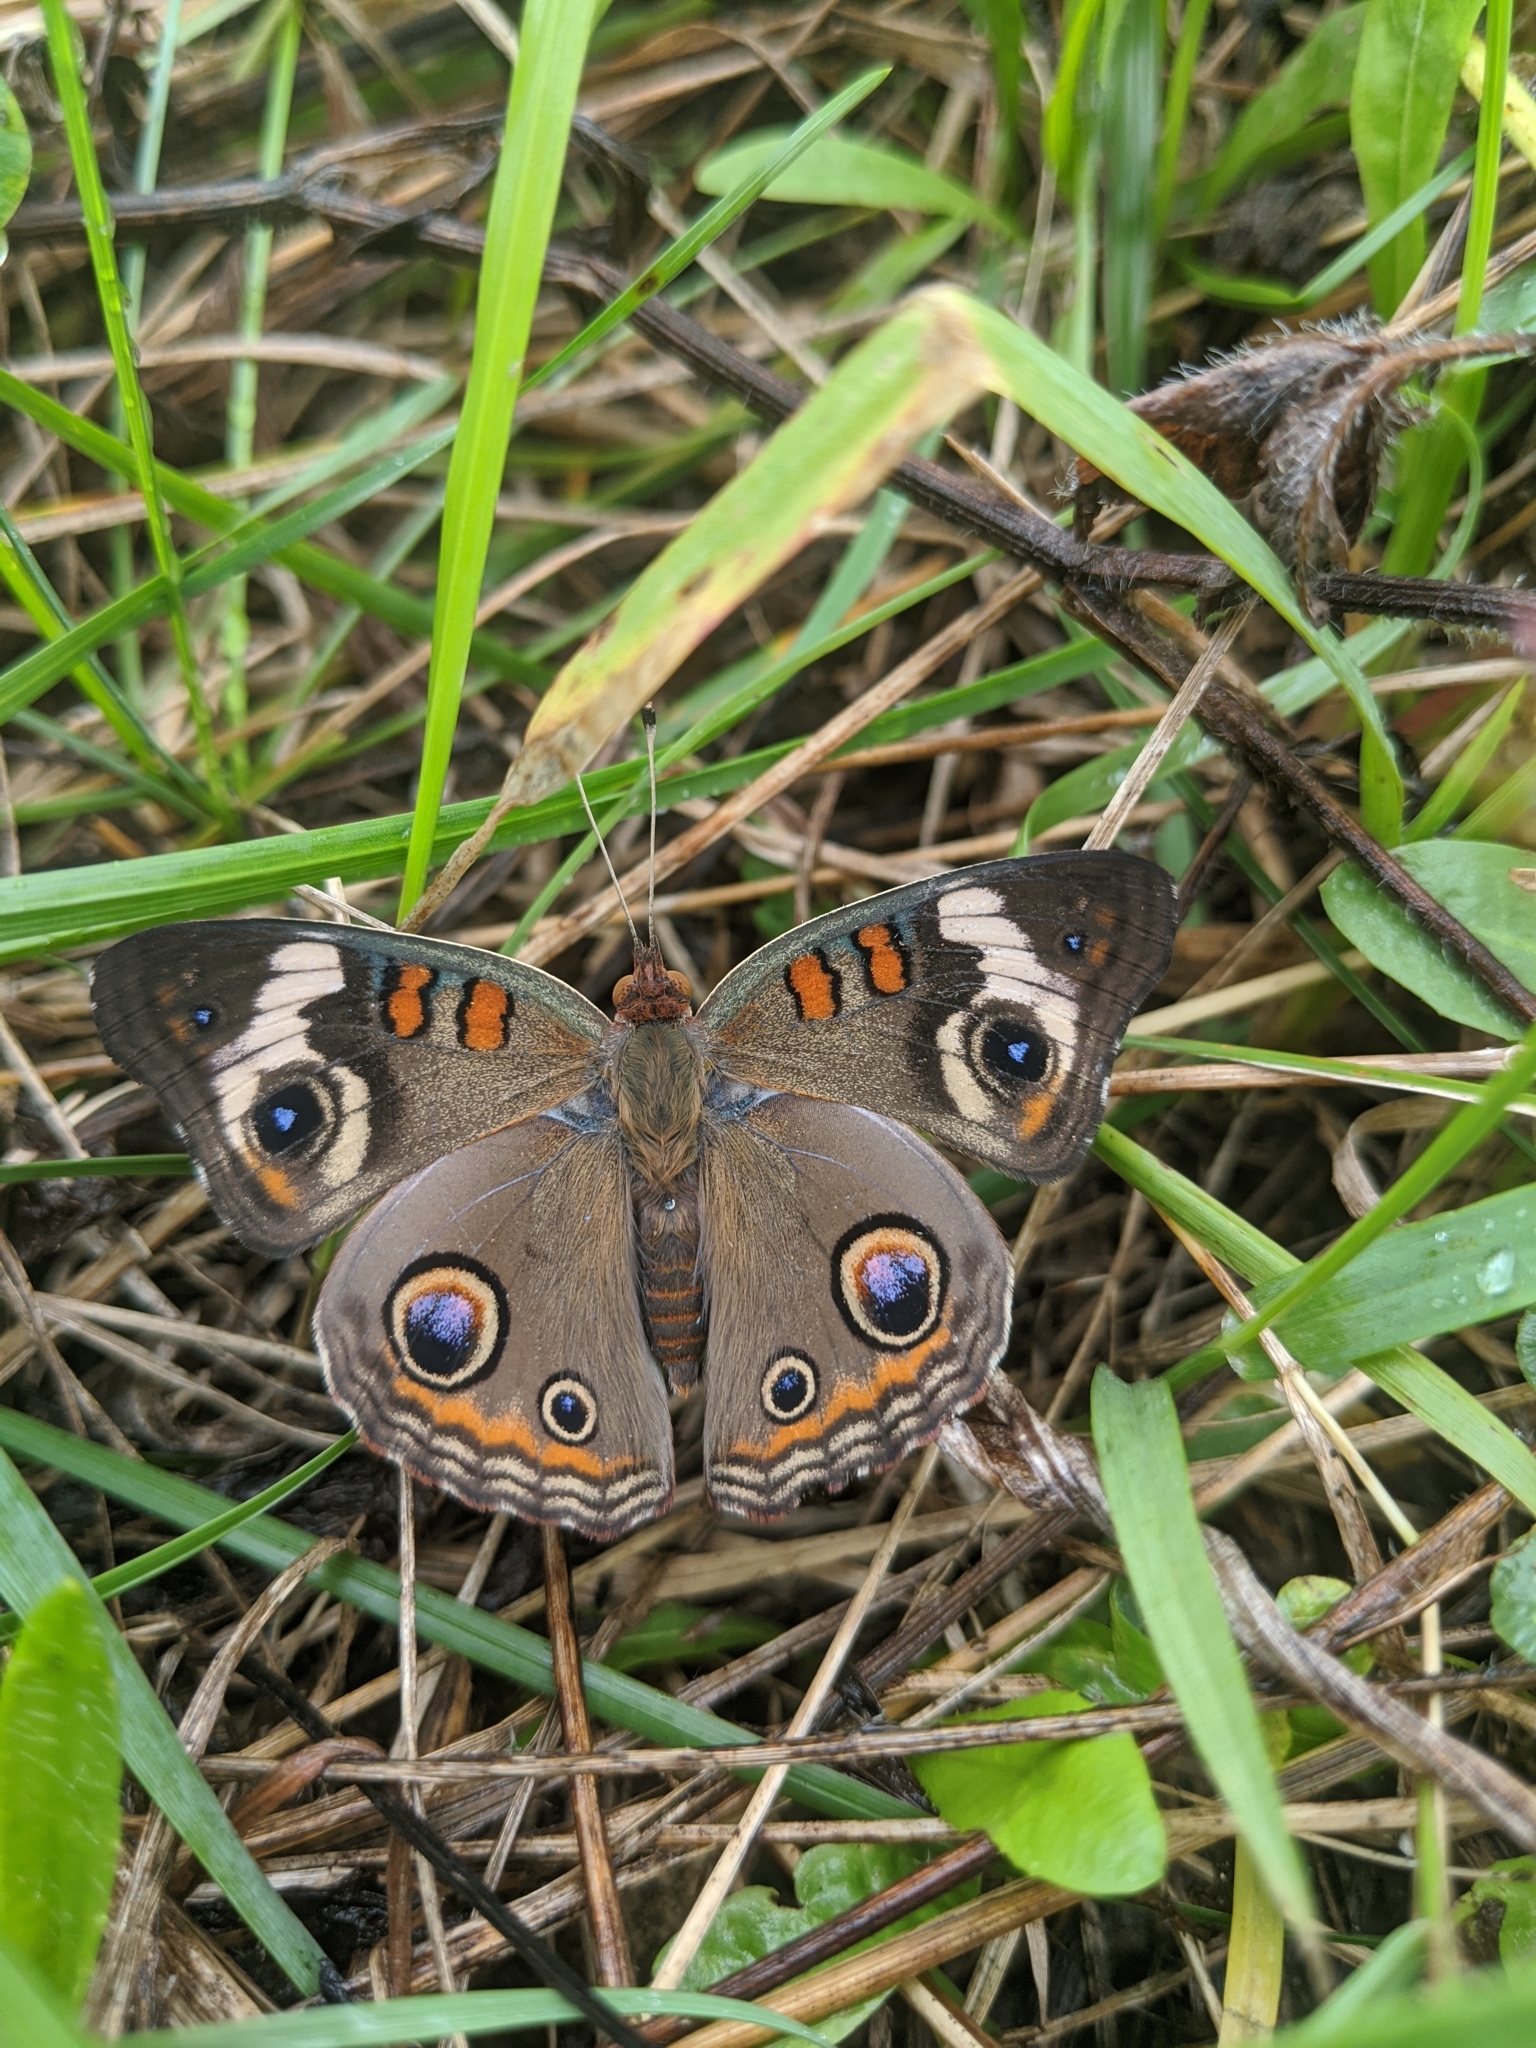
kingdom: Animalia
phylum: Arthropoda
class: Insecta
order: Lepidoptera
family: Nymphalidae
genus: Junonia
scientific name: Junonia coenia
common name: Common buckeye
